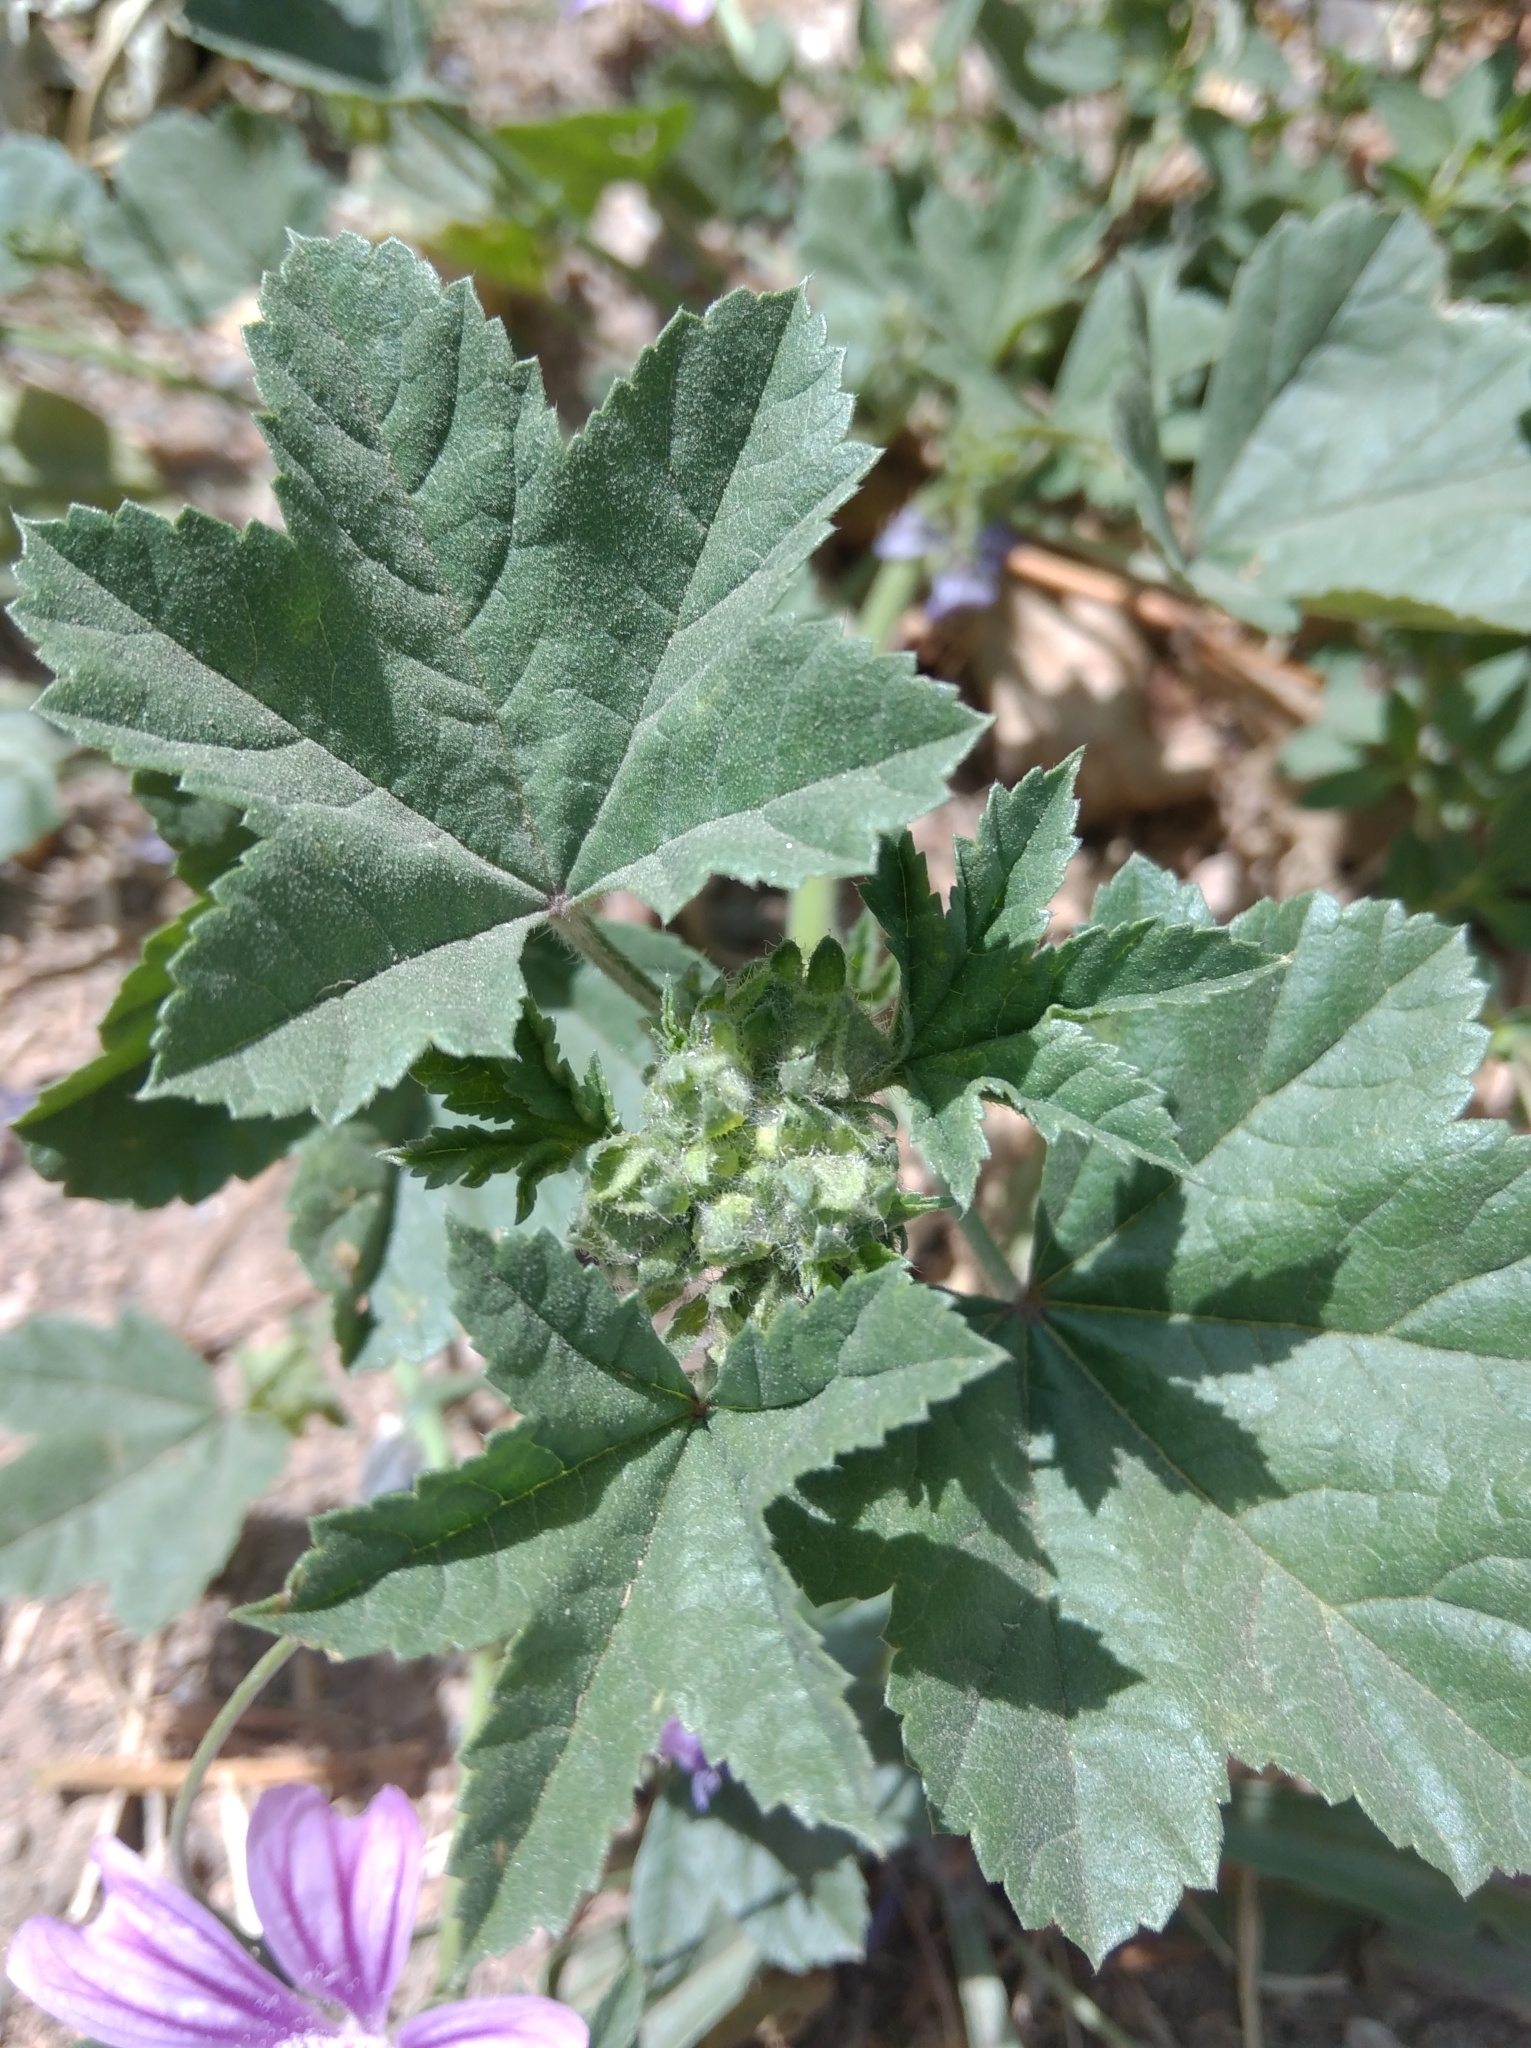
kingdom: Plantae
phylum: Tracheophyta
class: Magnoliopsida
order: Malvales
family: Malvaceae
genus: Malva
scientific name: Malva sylvestris
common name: Common mallow
